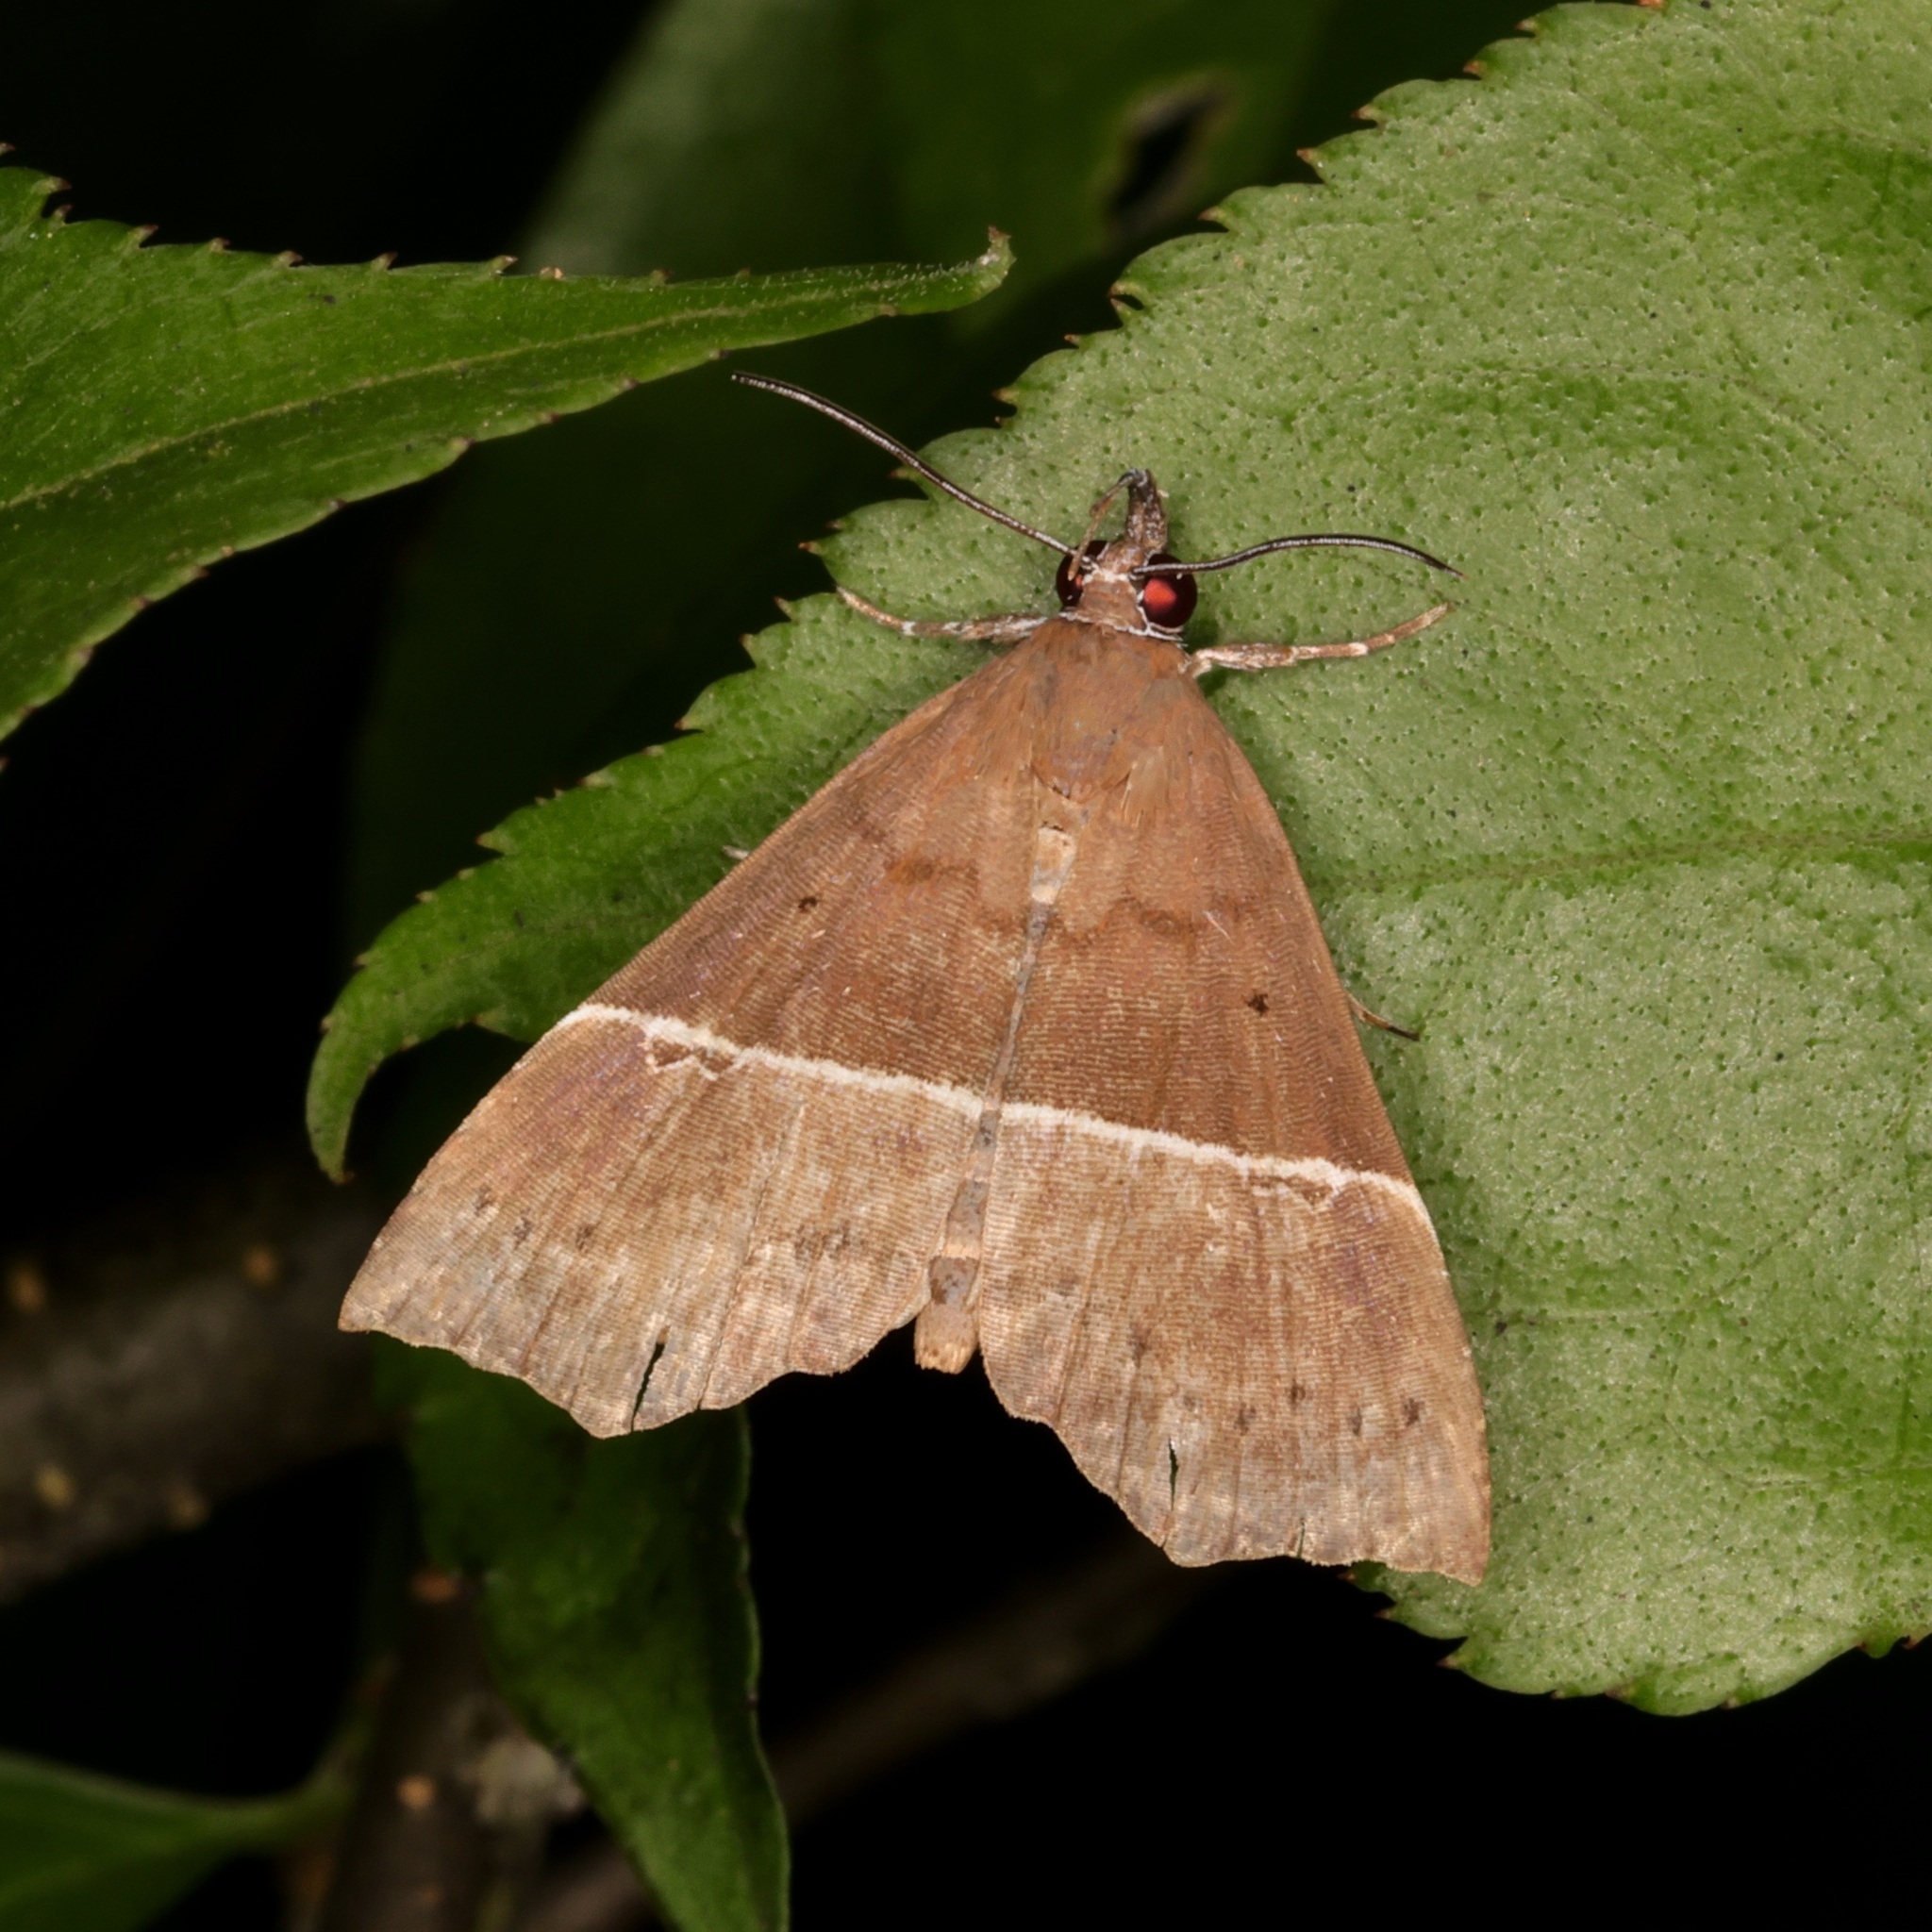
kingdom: Animalia
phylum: Arthropoda
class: Insecta
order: Lepidoptera
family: Erebidae
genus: Catada
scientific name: Catada vagalis
